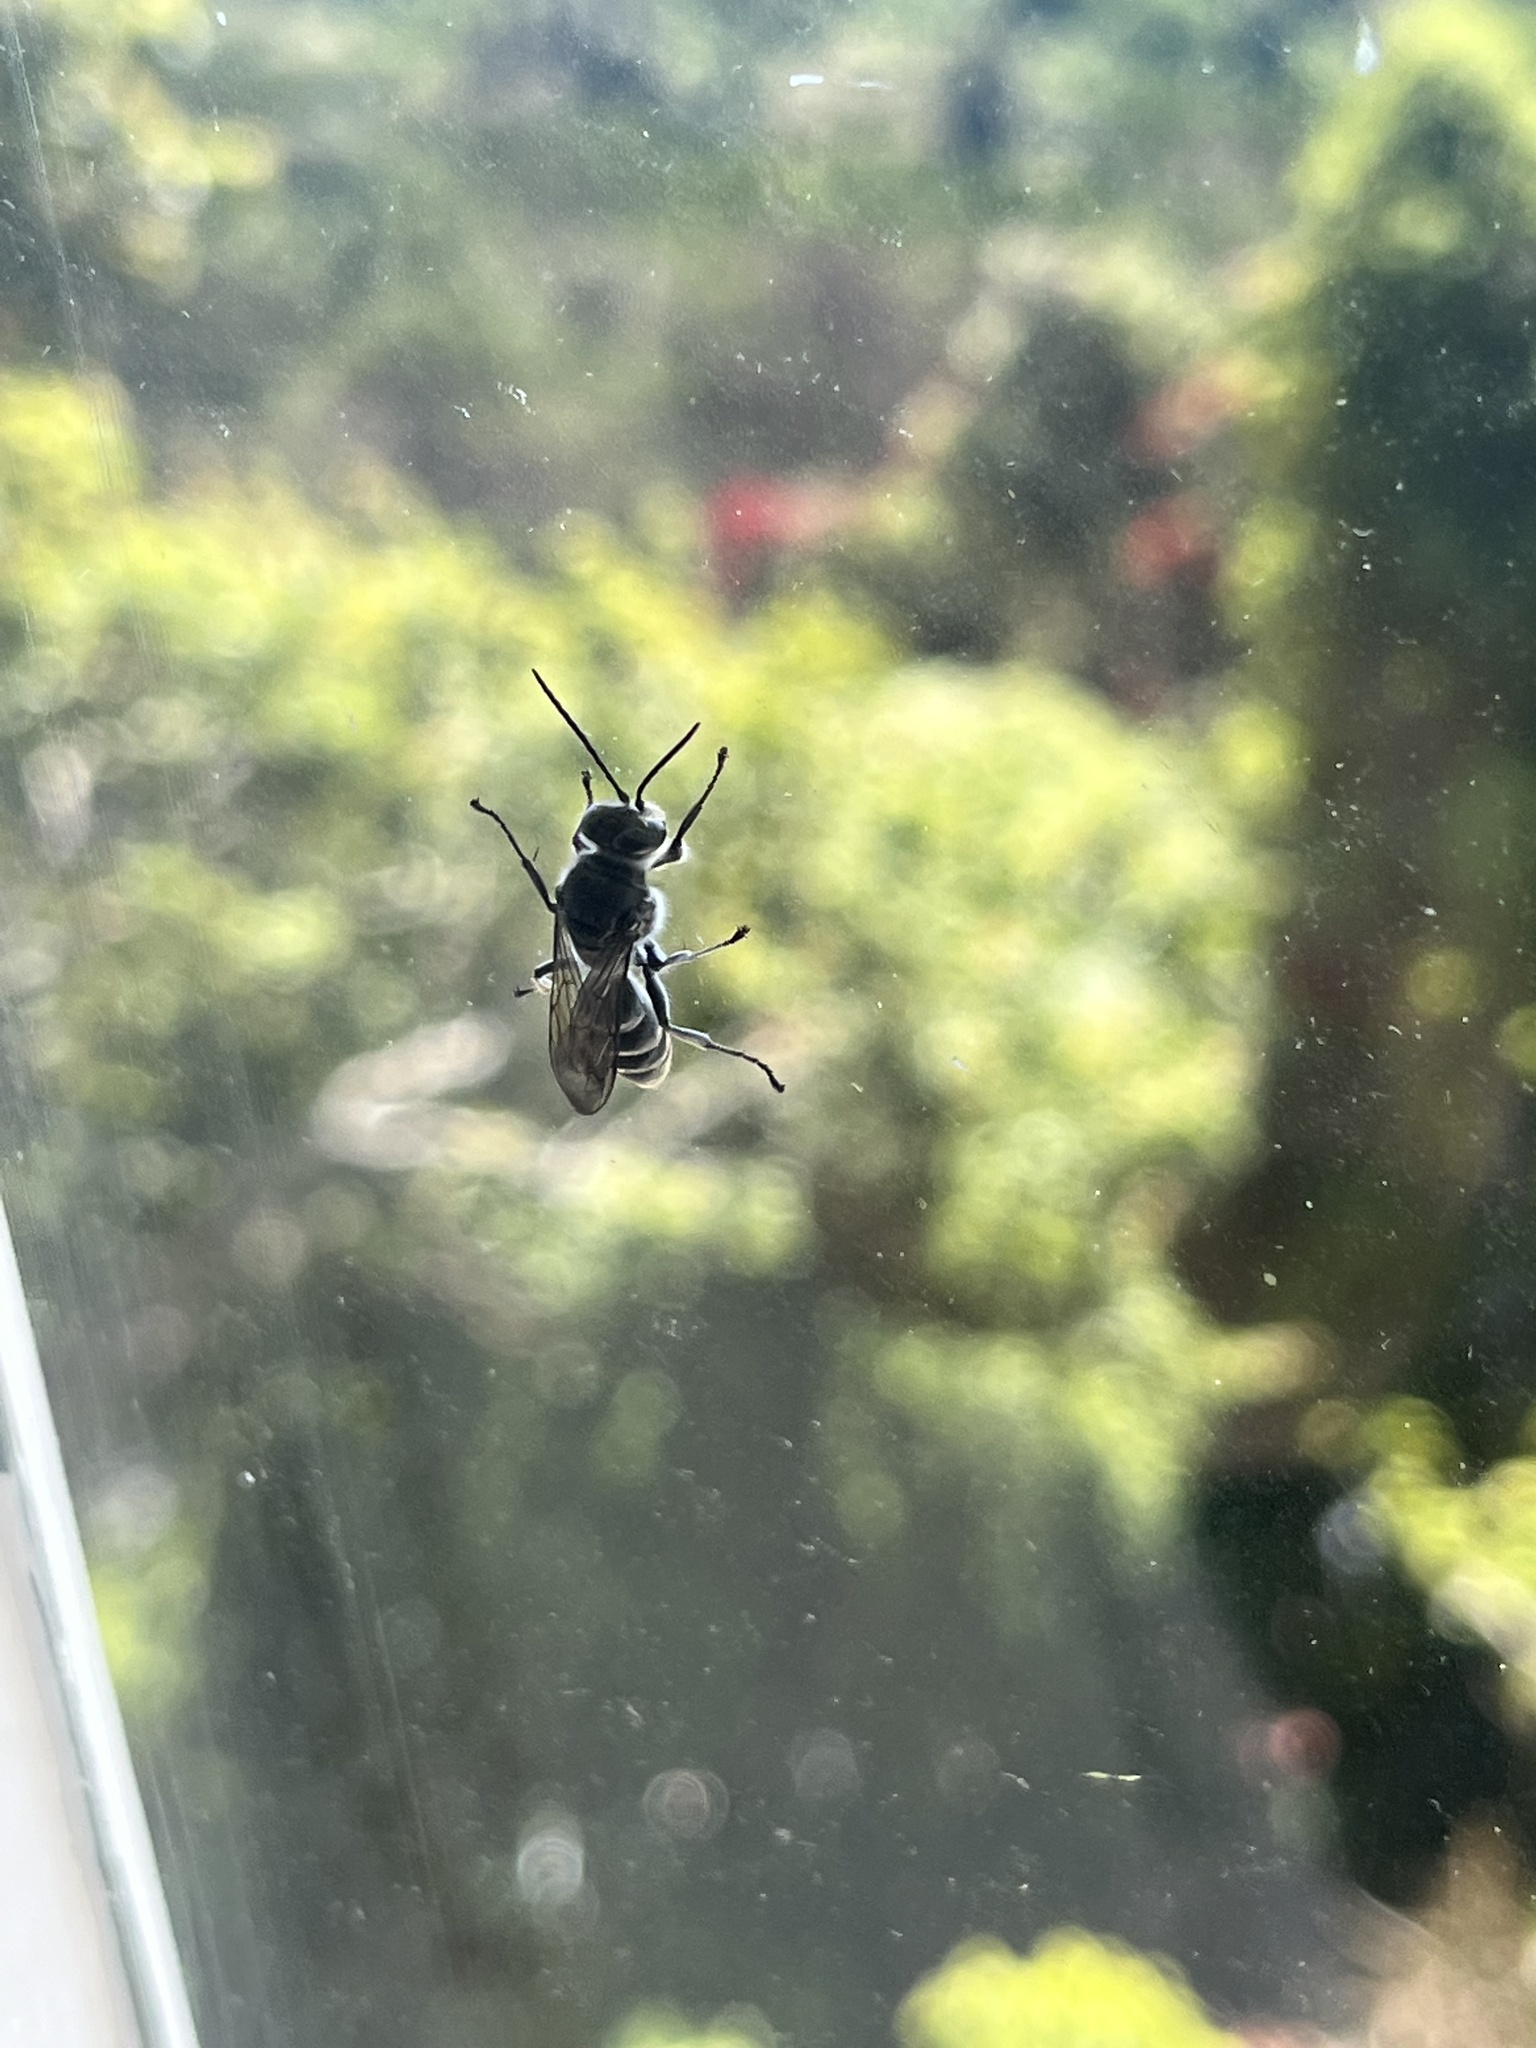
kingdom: Animalia
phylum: Arthropoda
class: Insecta
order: Hymenoptera
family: Crabronidae
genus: Pison
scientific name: Pison spinolae
